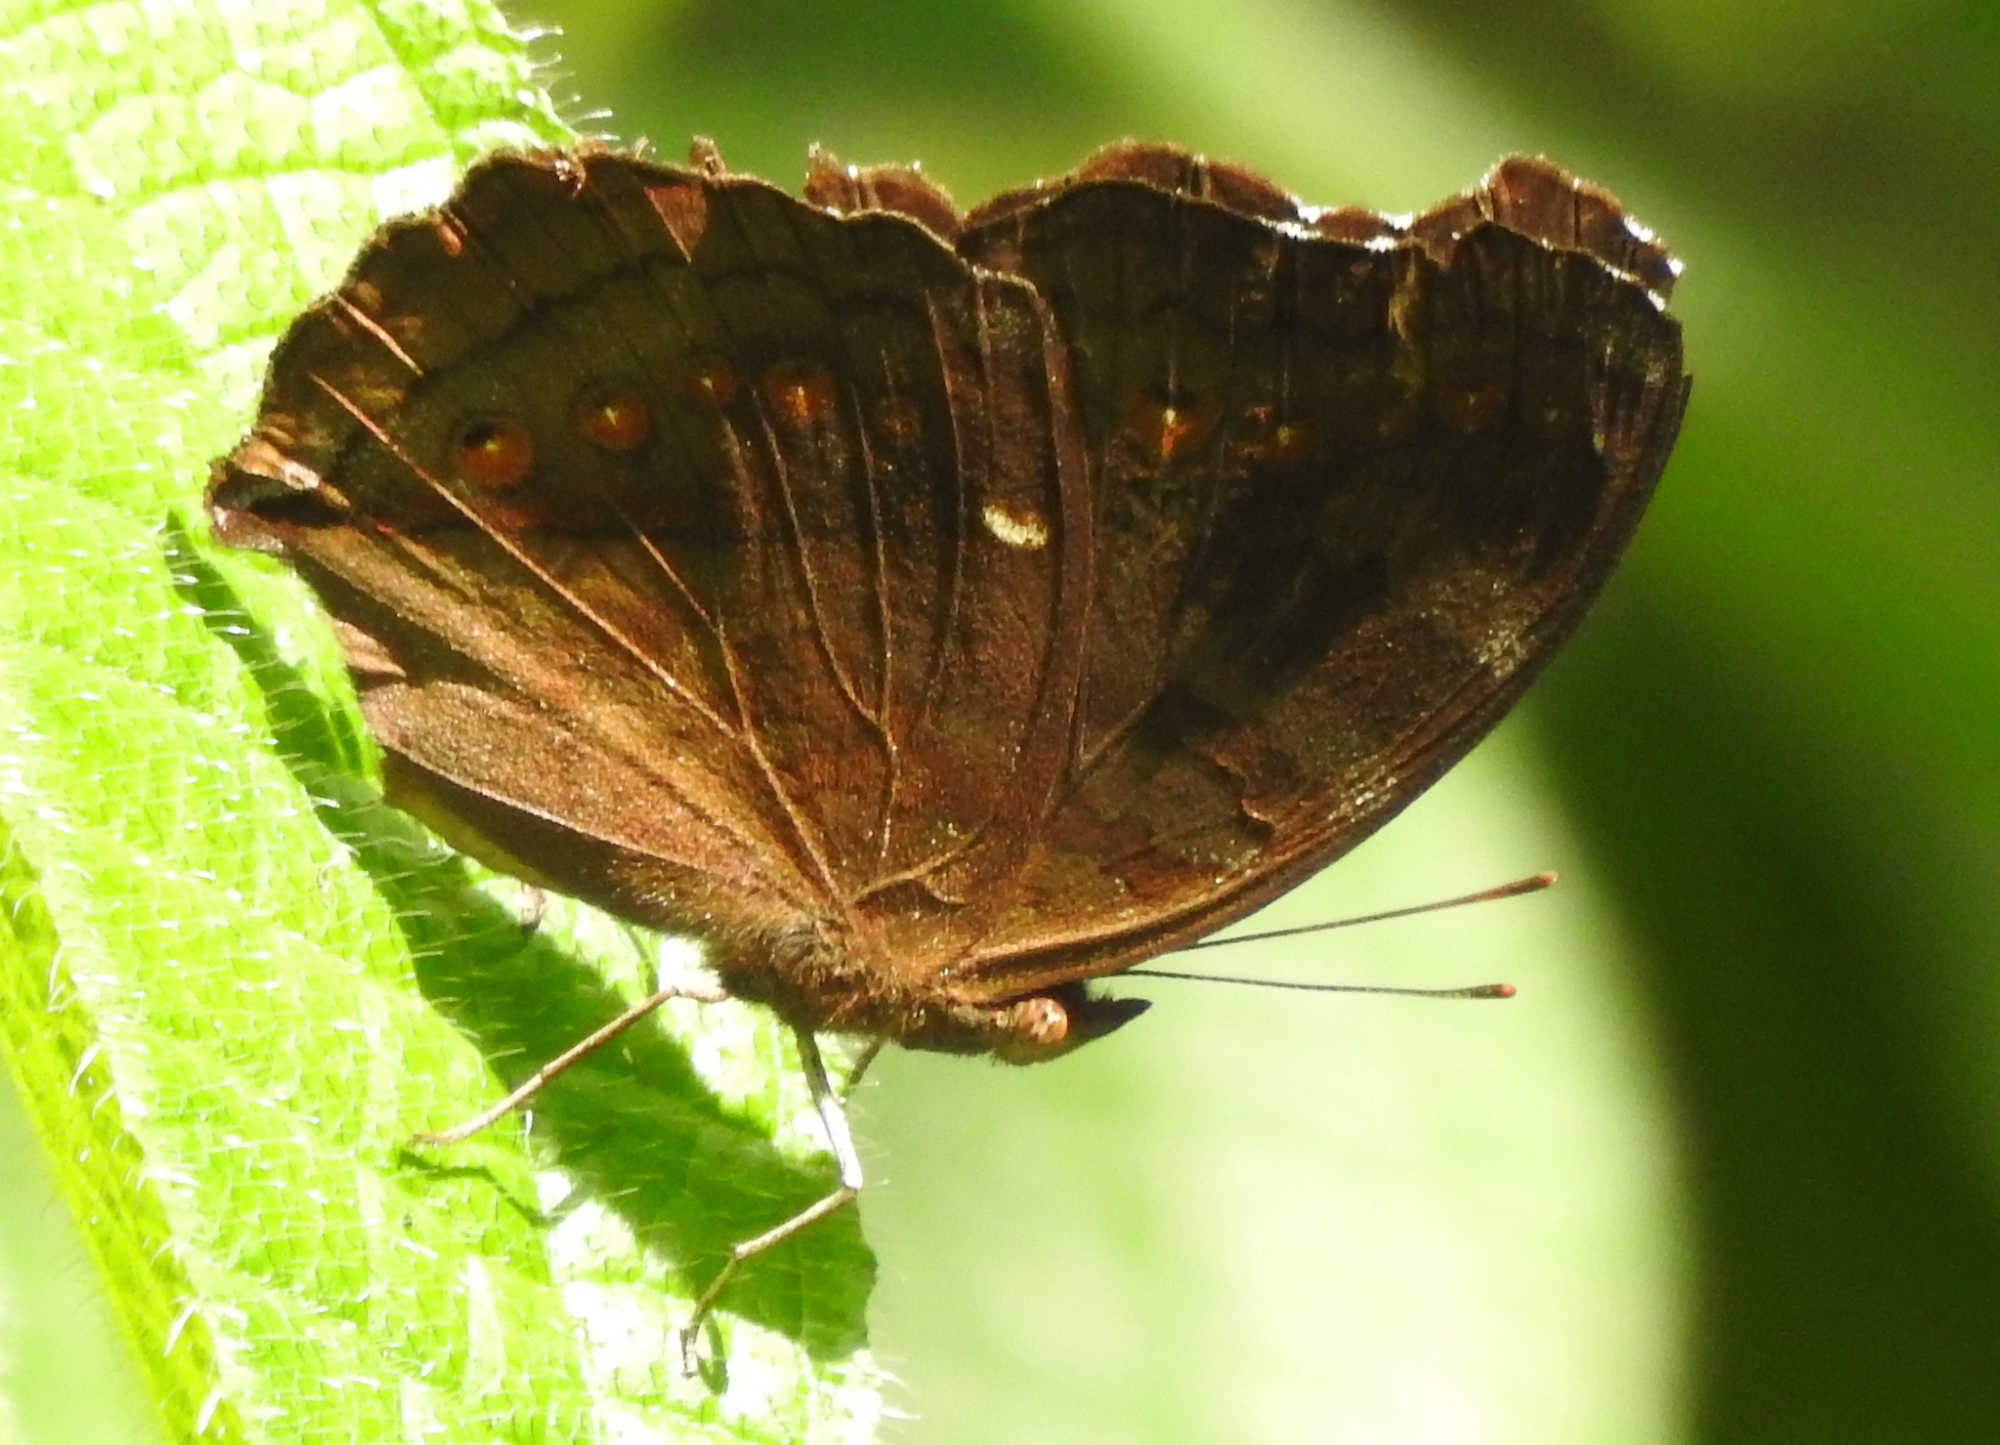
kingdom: Animalia
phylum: Arthropoda
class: Insecta
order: Lepidoptera
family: Nymphalidae
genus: Junonia
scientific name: Junonia hedonia
